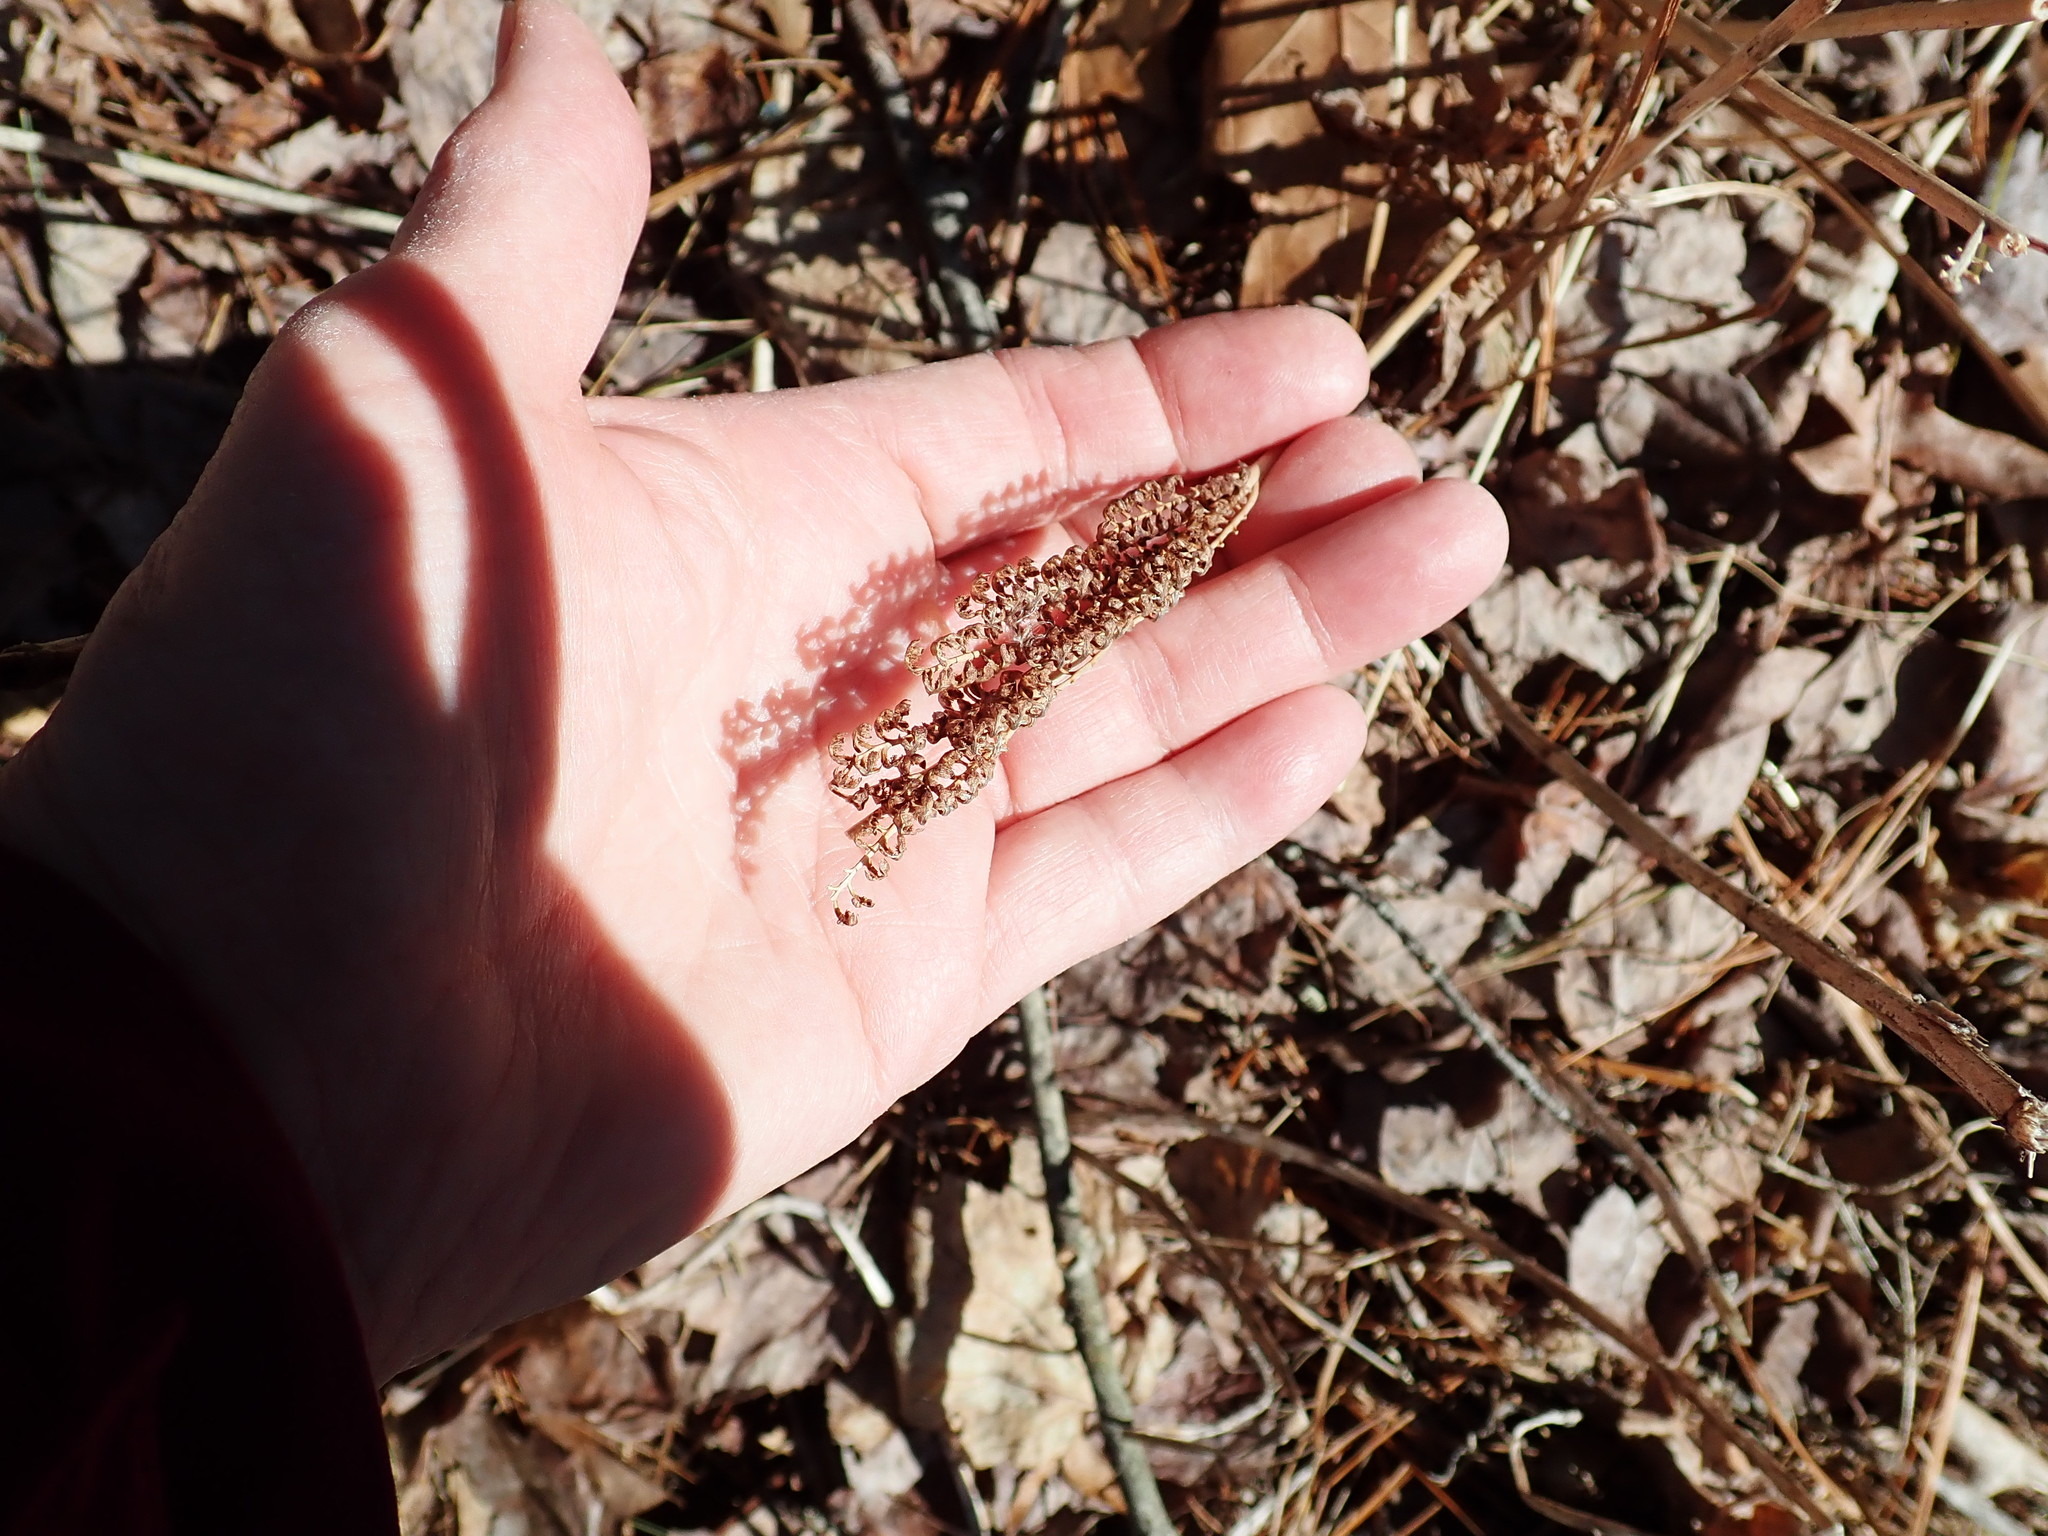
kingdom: Plantae
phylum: Tracheophyta
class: Polypodiopsida
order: Polypodiales
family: Onocleaceae
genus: Onoclea
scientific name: Onoclea sensibilis
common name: Sensitive fern
